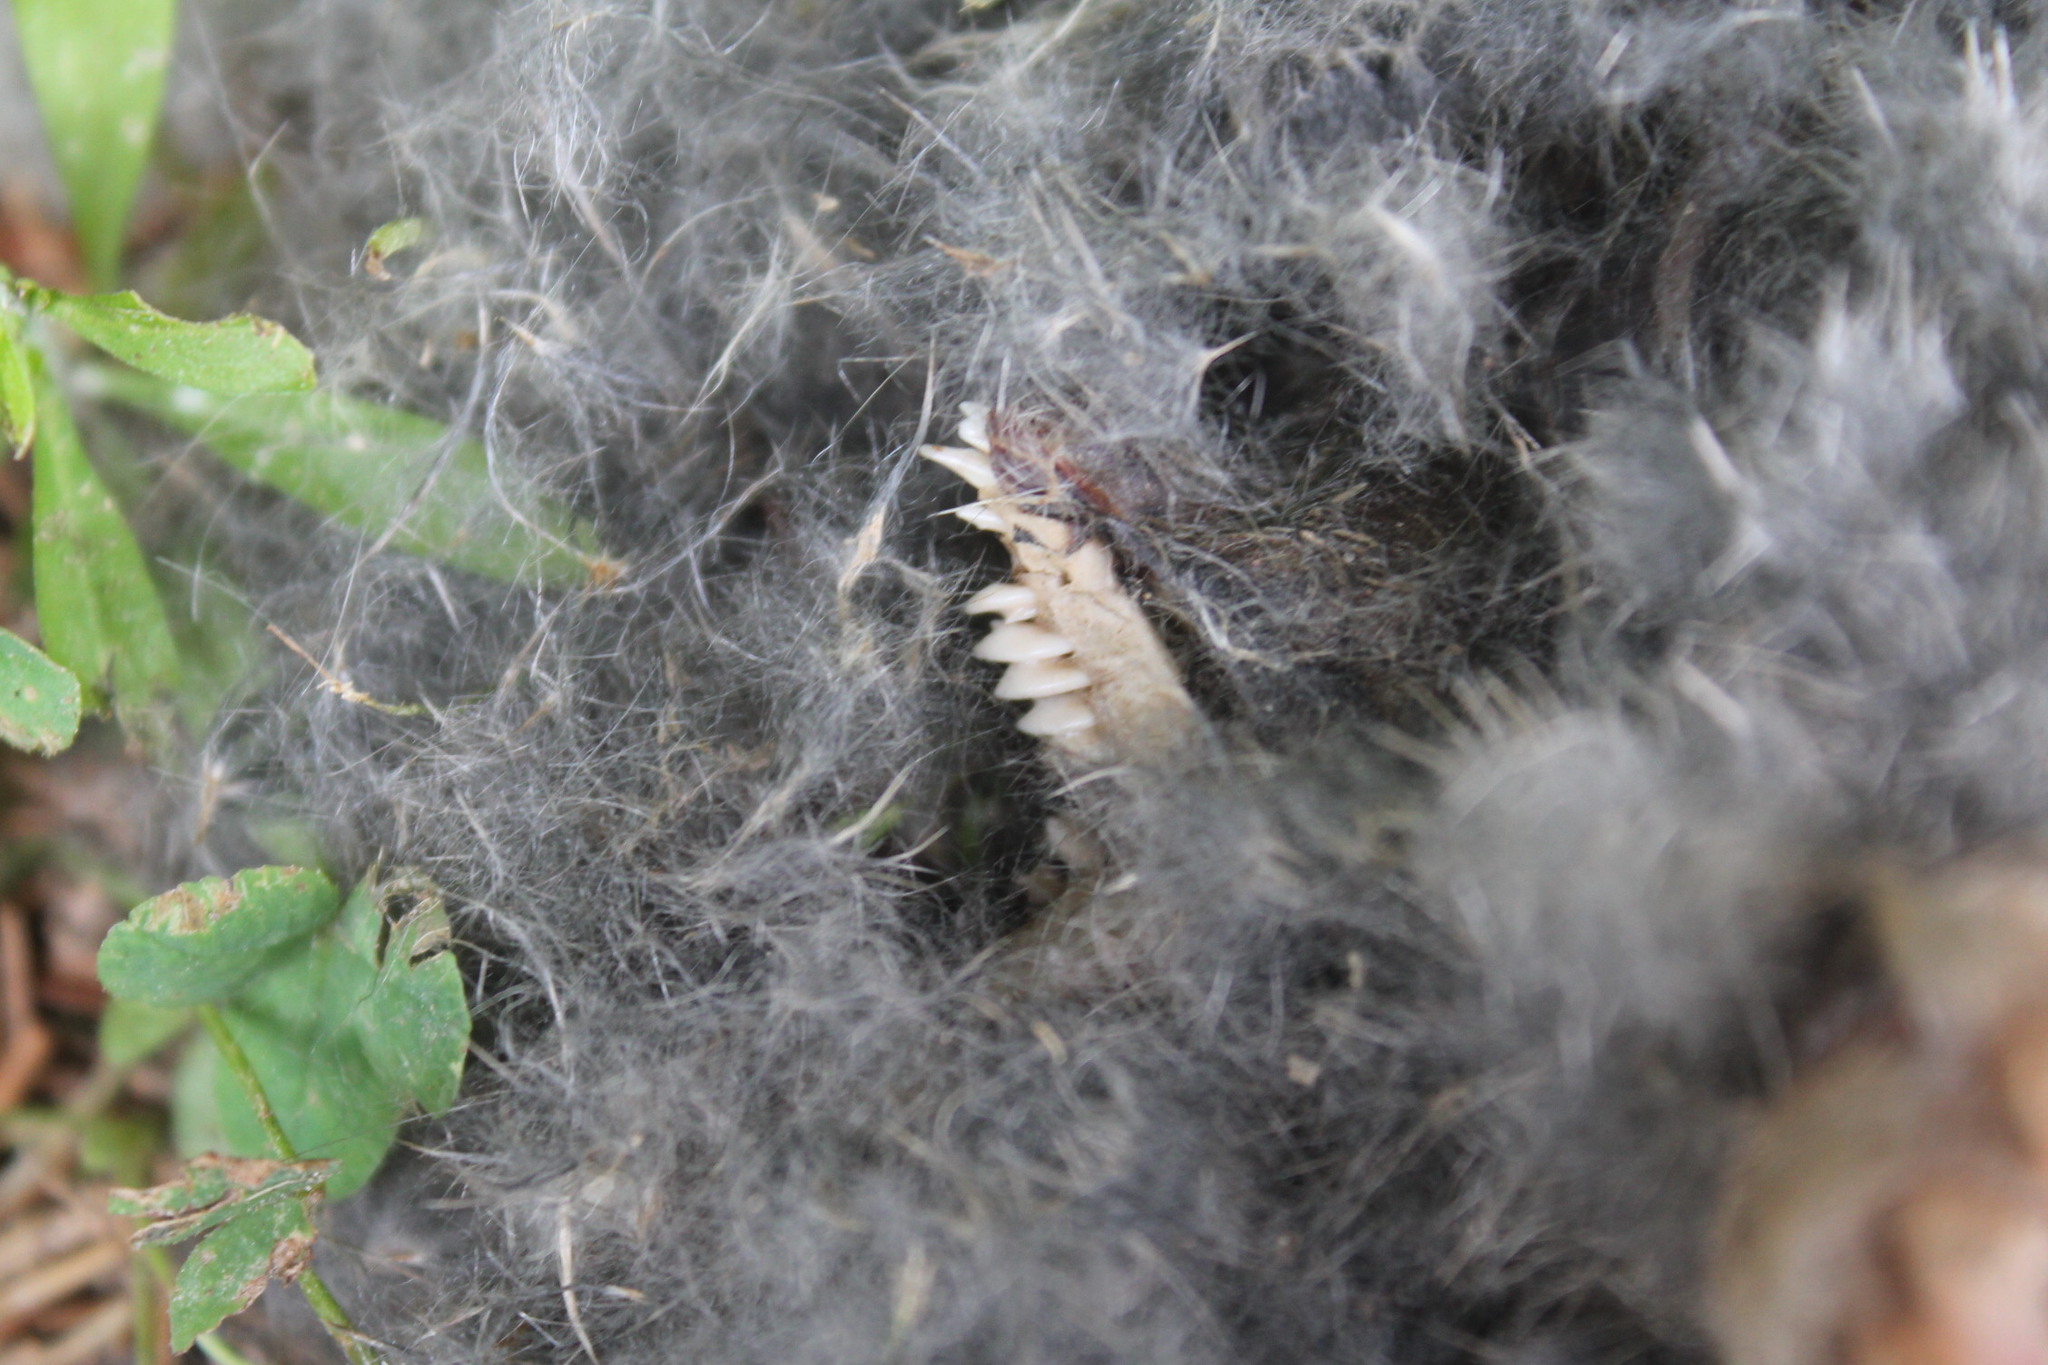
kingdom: Animalia
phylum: Chordata
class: Mammalia
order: Soricomorpha
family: Talpidae
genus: Scalopus
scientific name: Scalopus aquaticus
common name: Eastern mole
